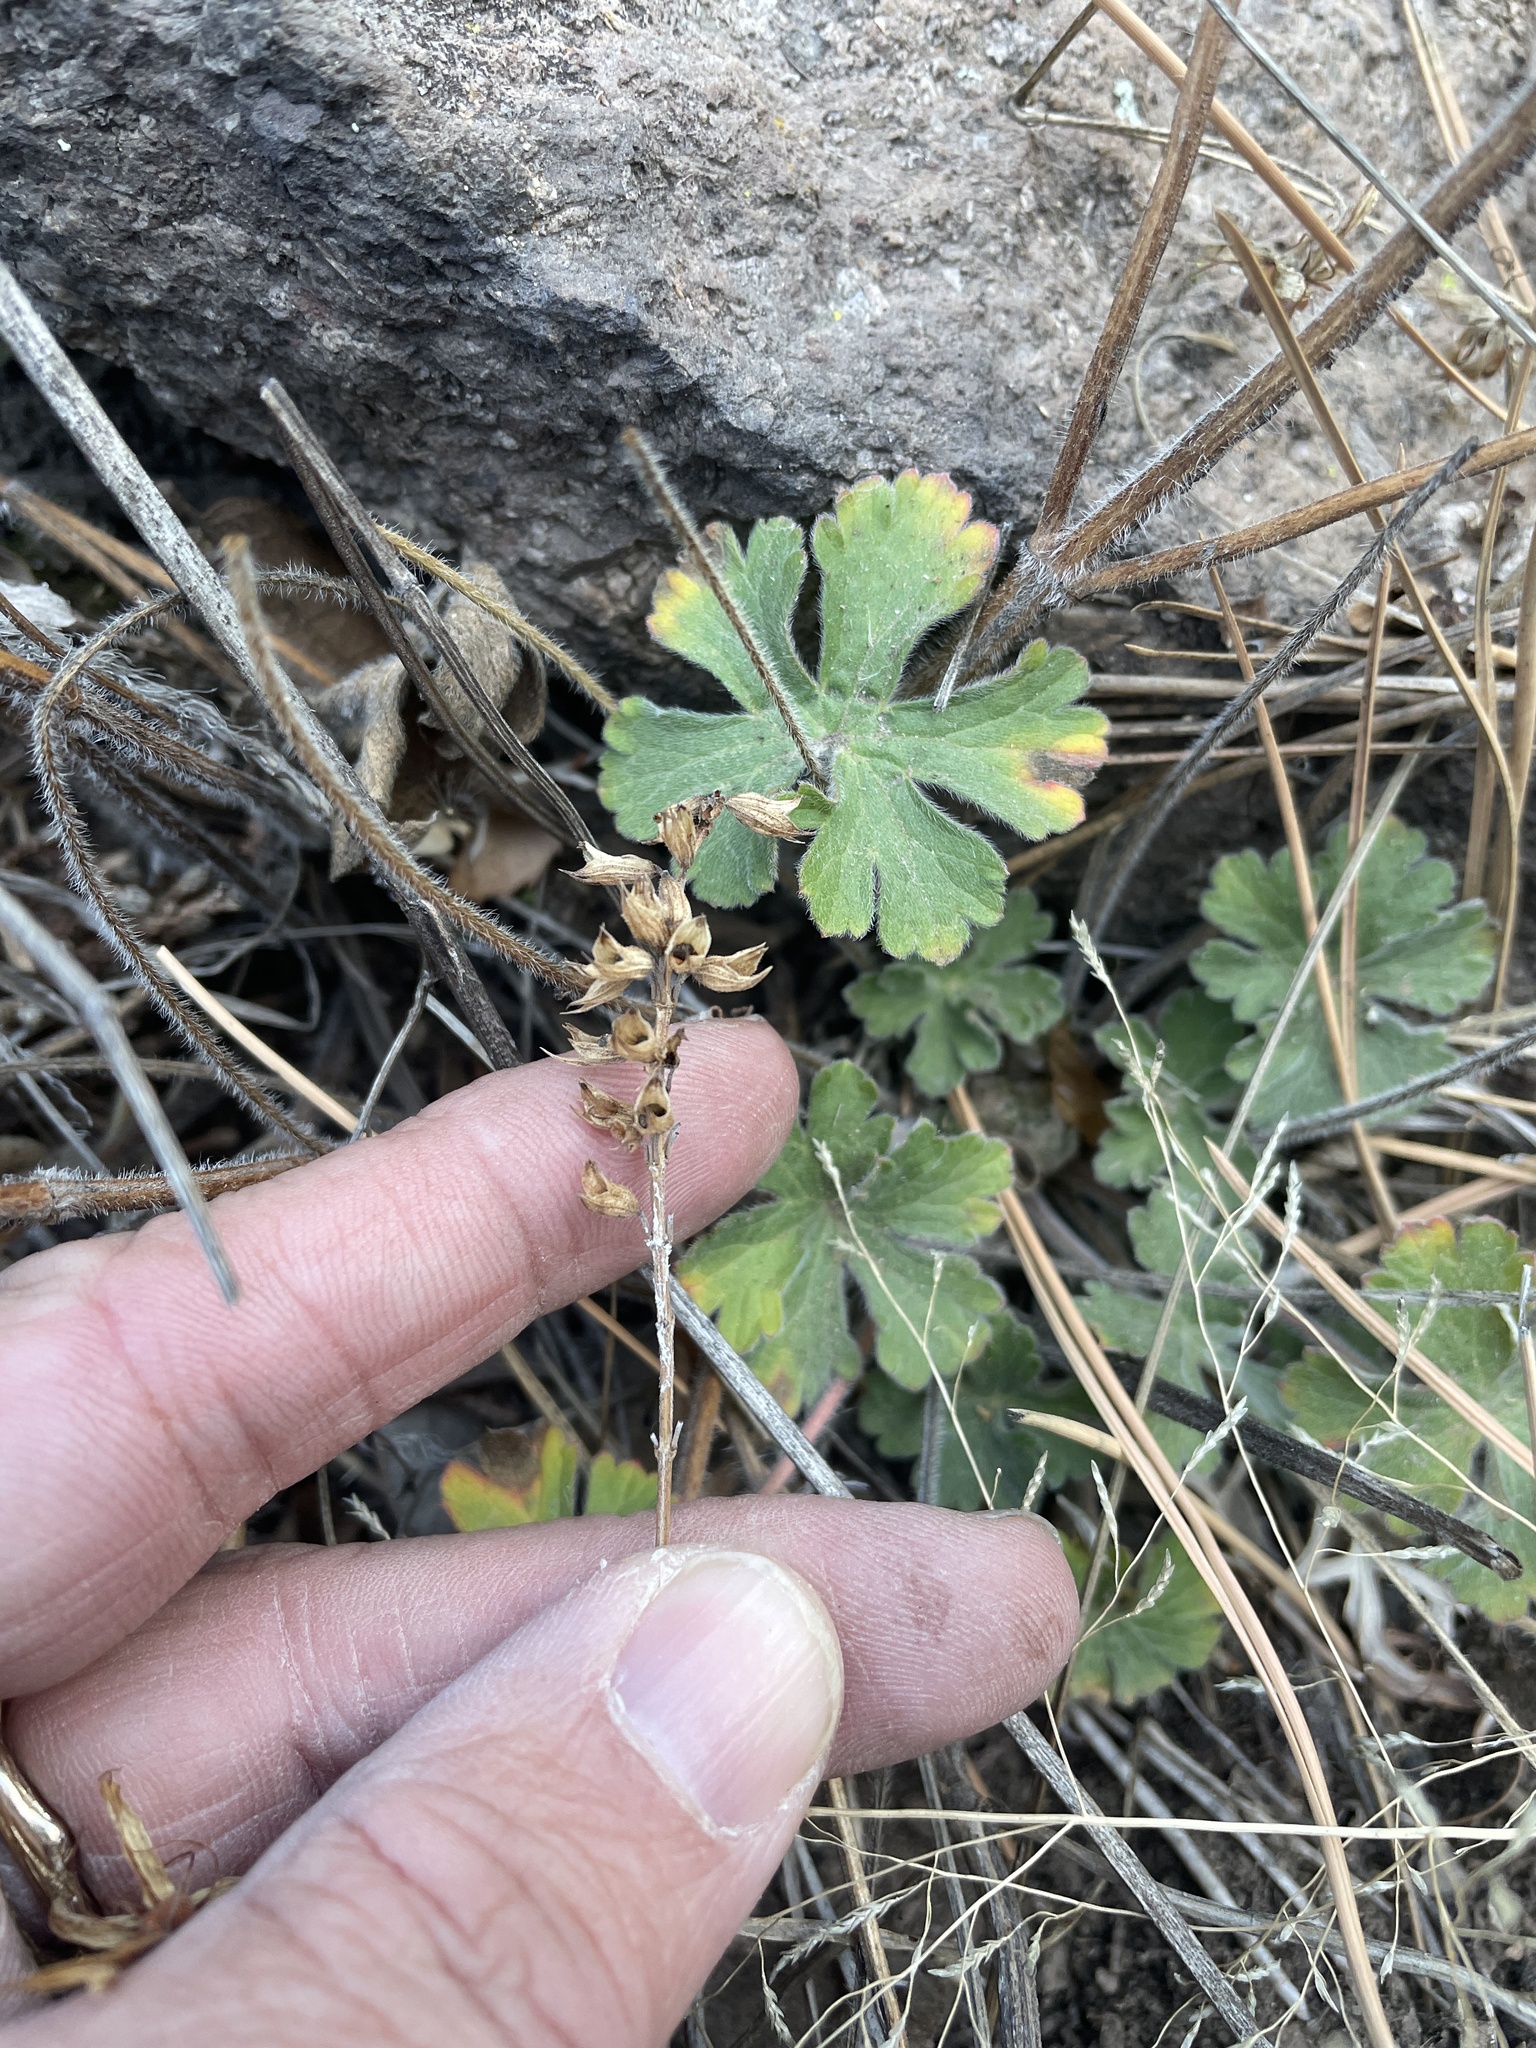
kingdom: Plantae
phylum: Tracheophyta
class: Magnoliopsida
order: Geraniales
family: Geraniaceae
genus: Geranium
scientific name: Geranium caespitosum
